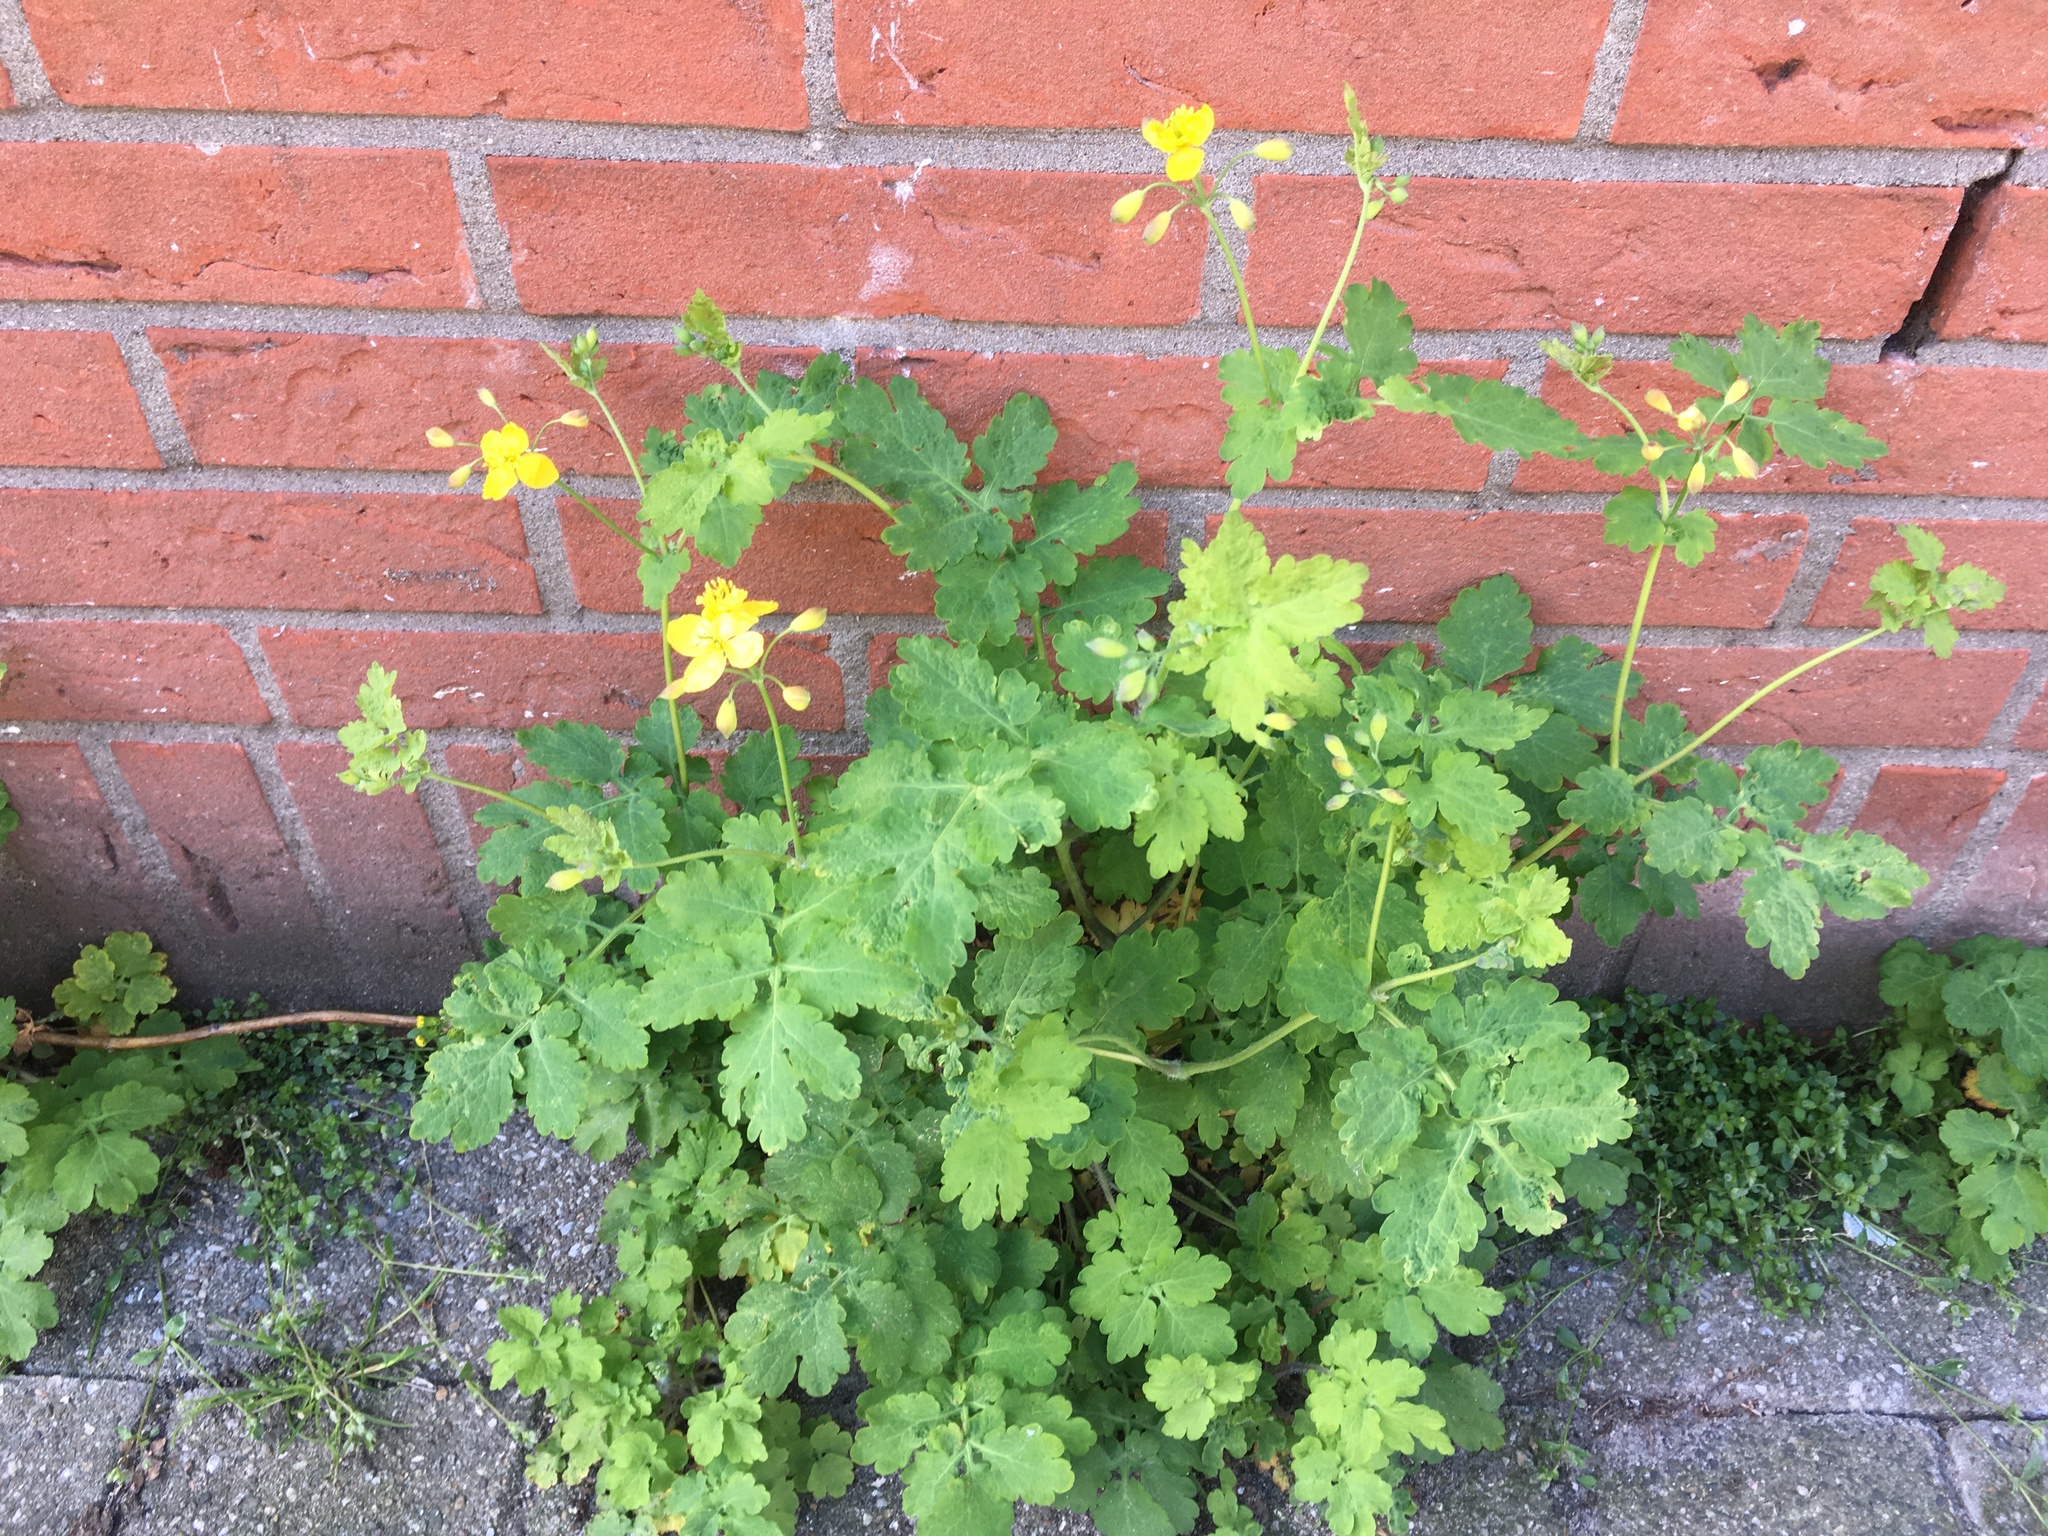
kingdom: Plantae
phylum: Tracheophyta
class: Magnoliopsida
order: Ranunculales
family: Papaveraceae
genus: Chelidonium
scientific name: Chelidonium majus
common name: Greater celandine
